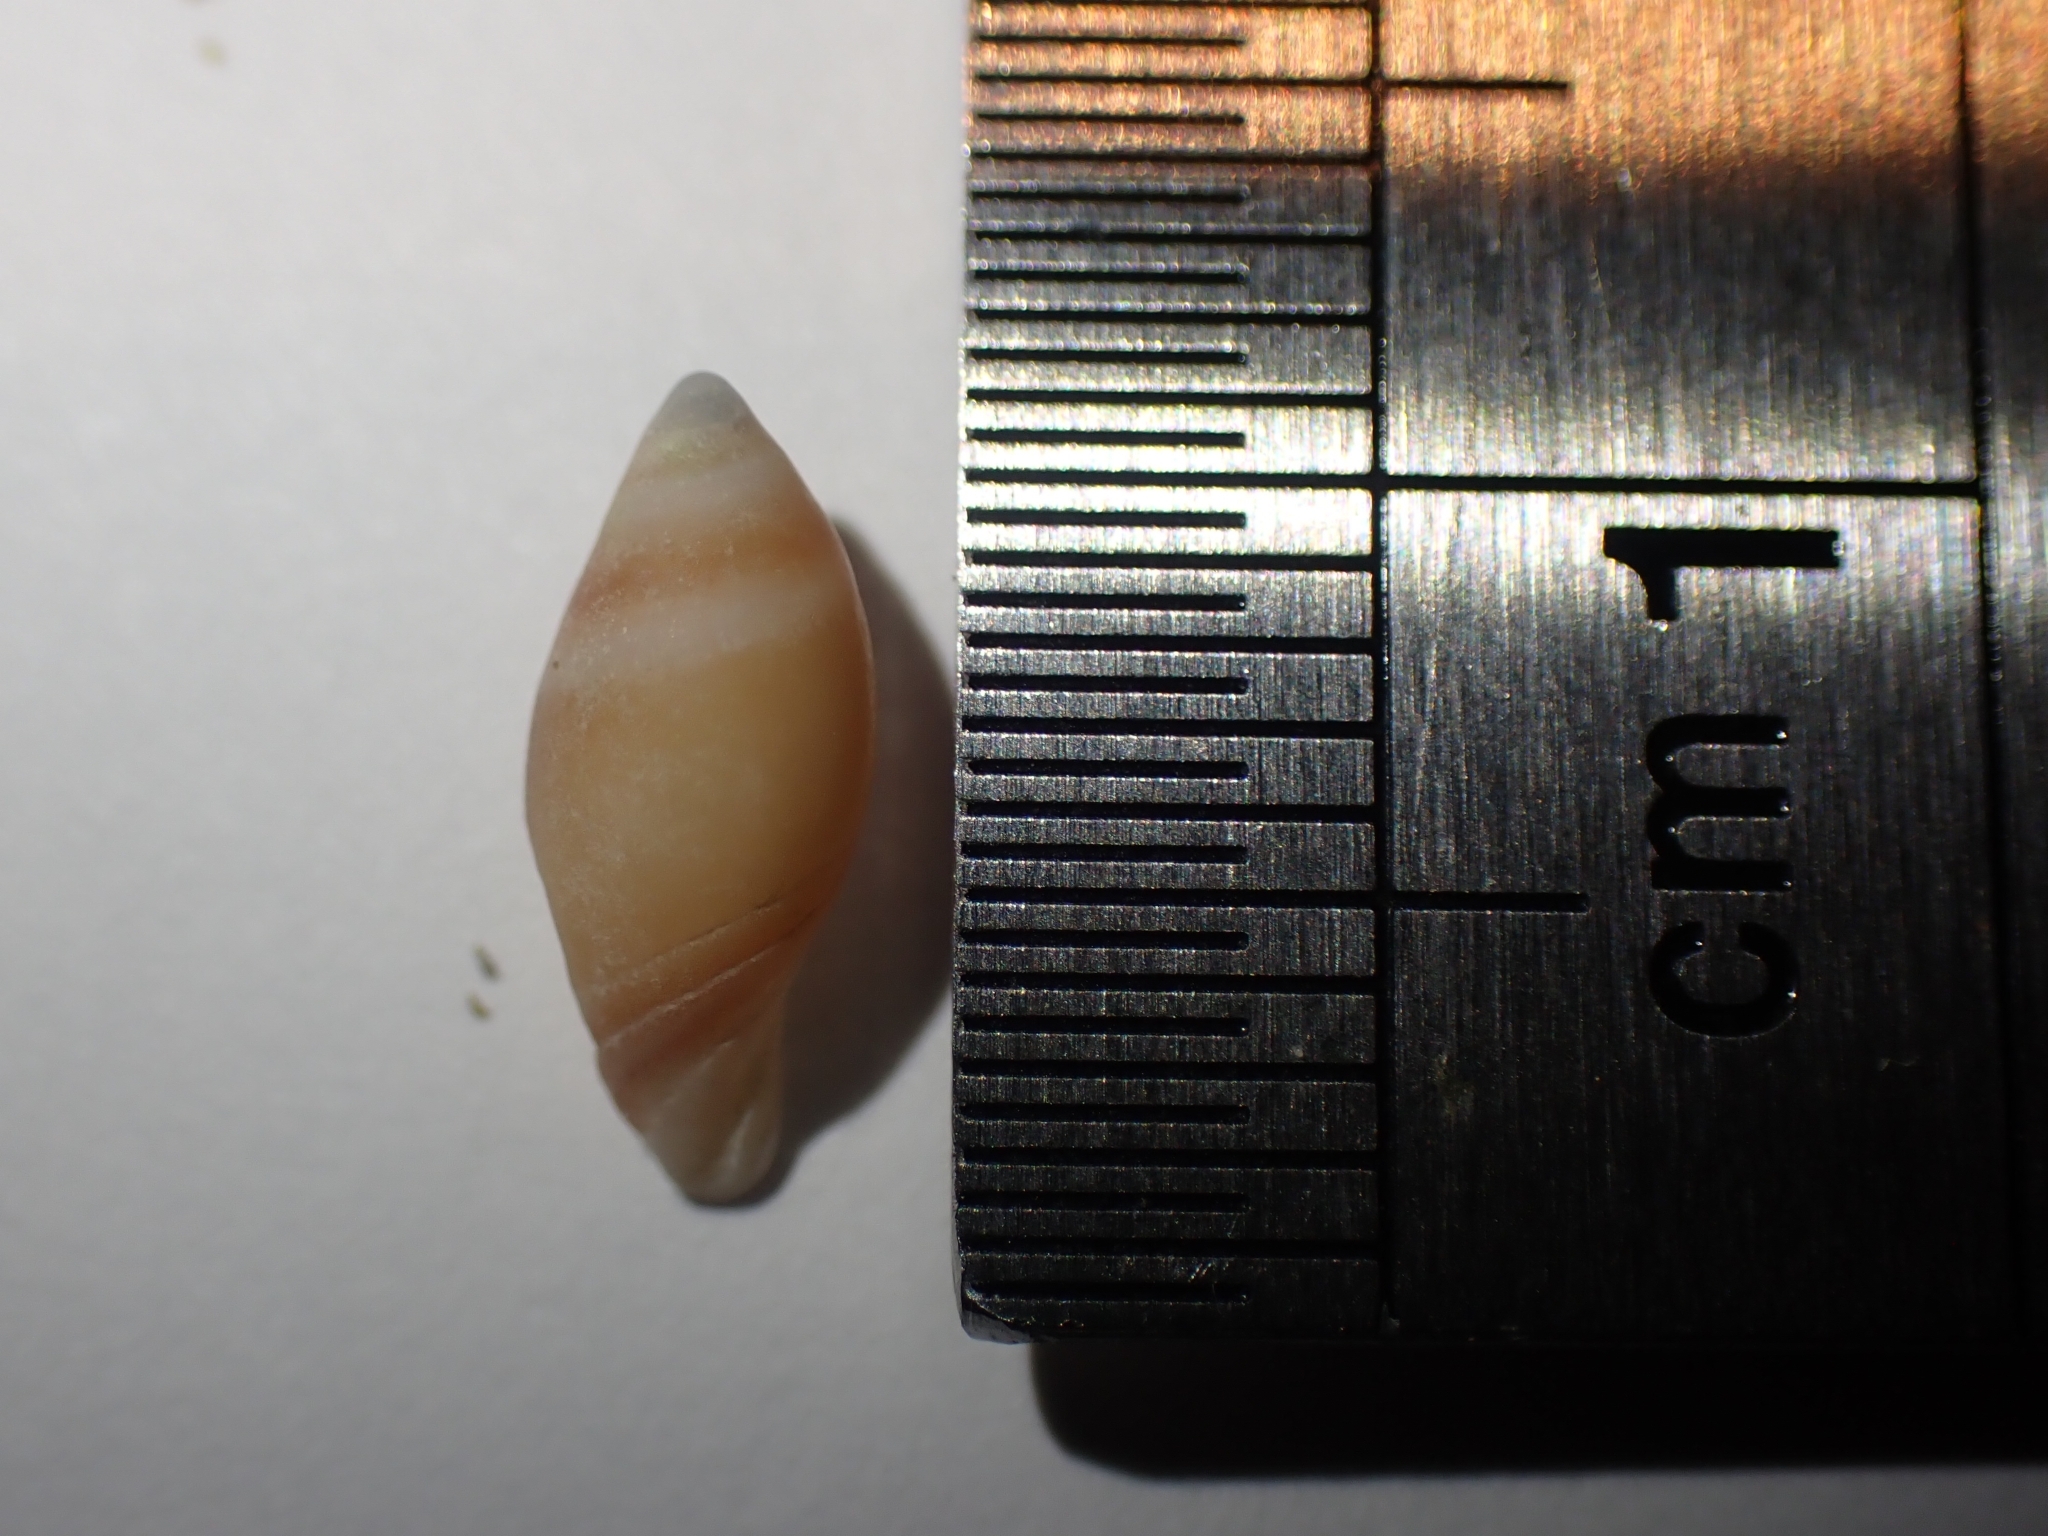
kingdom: Animalia
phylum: Mollusca
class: Gastropoda
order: Neogastropoda
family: Ancillariidae
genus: Amalda
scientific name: Amalda australis
